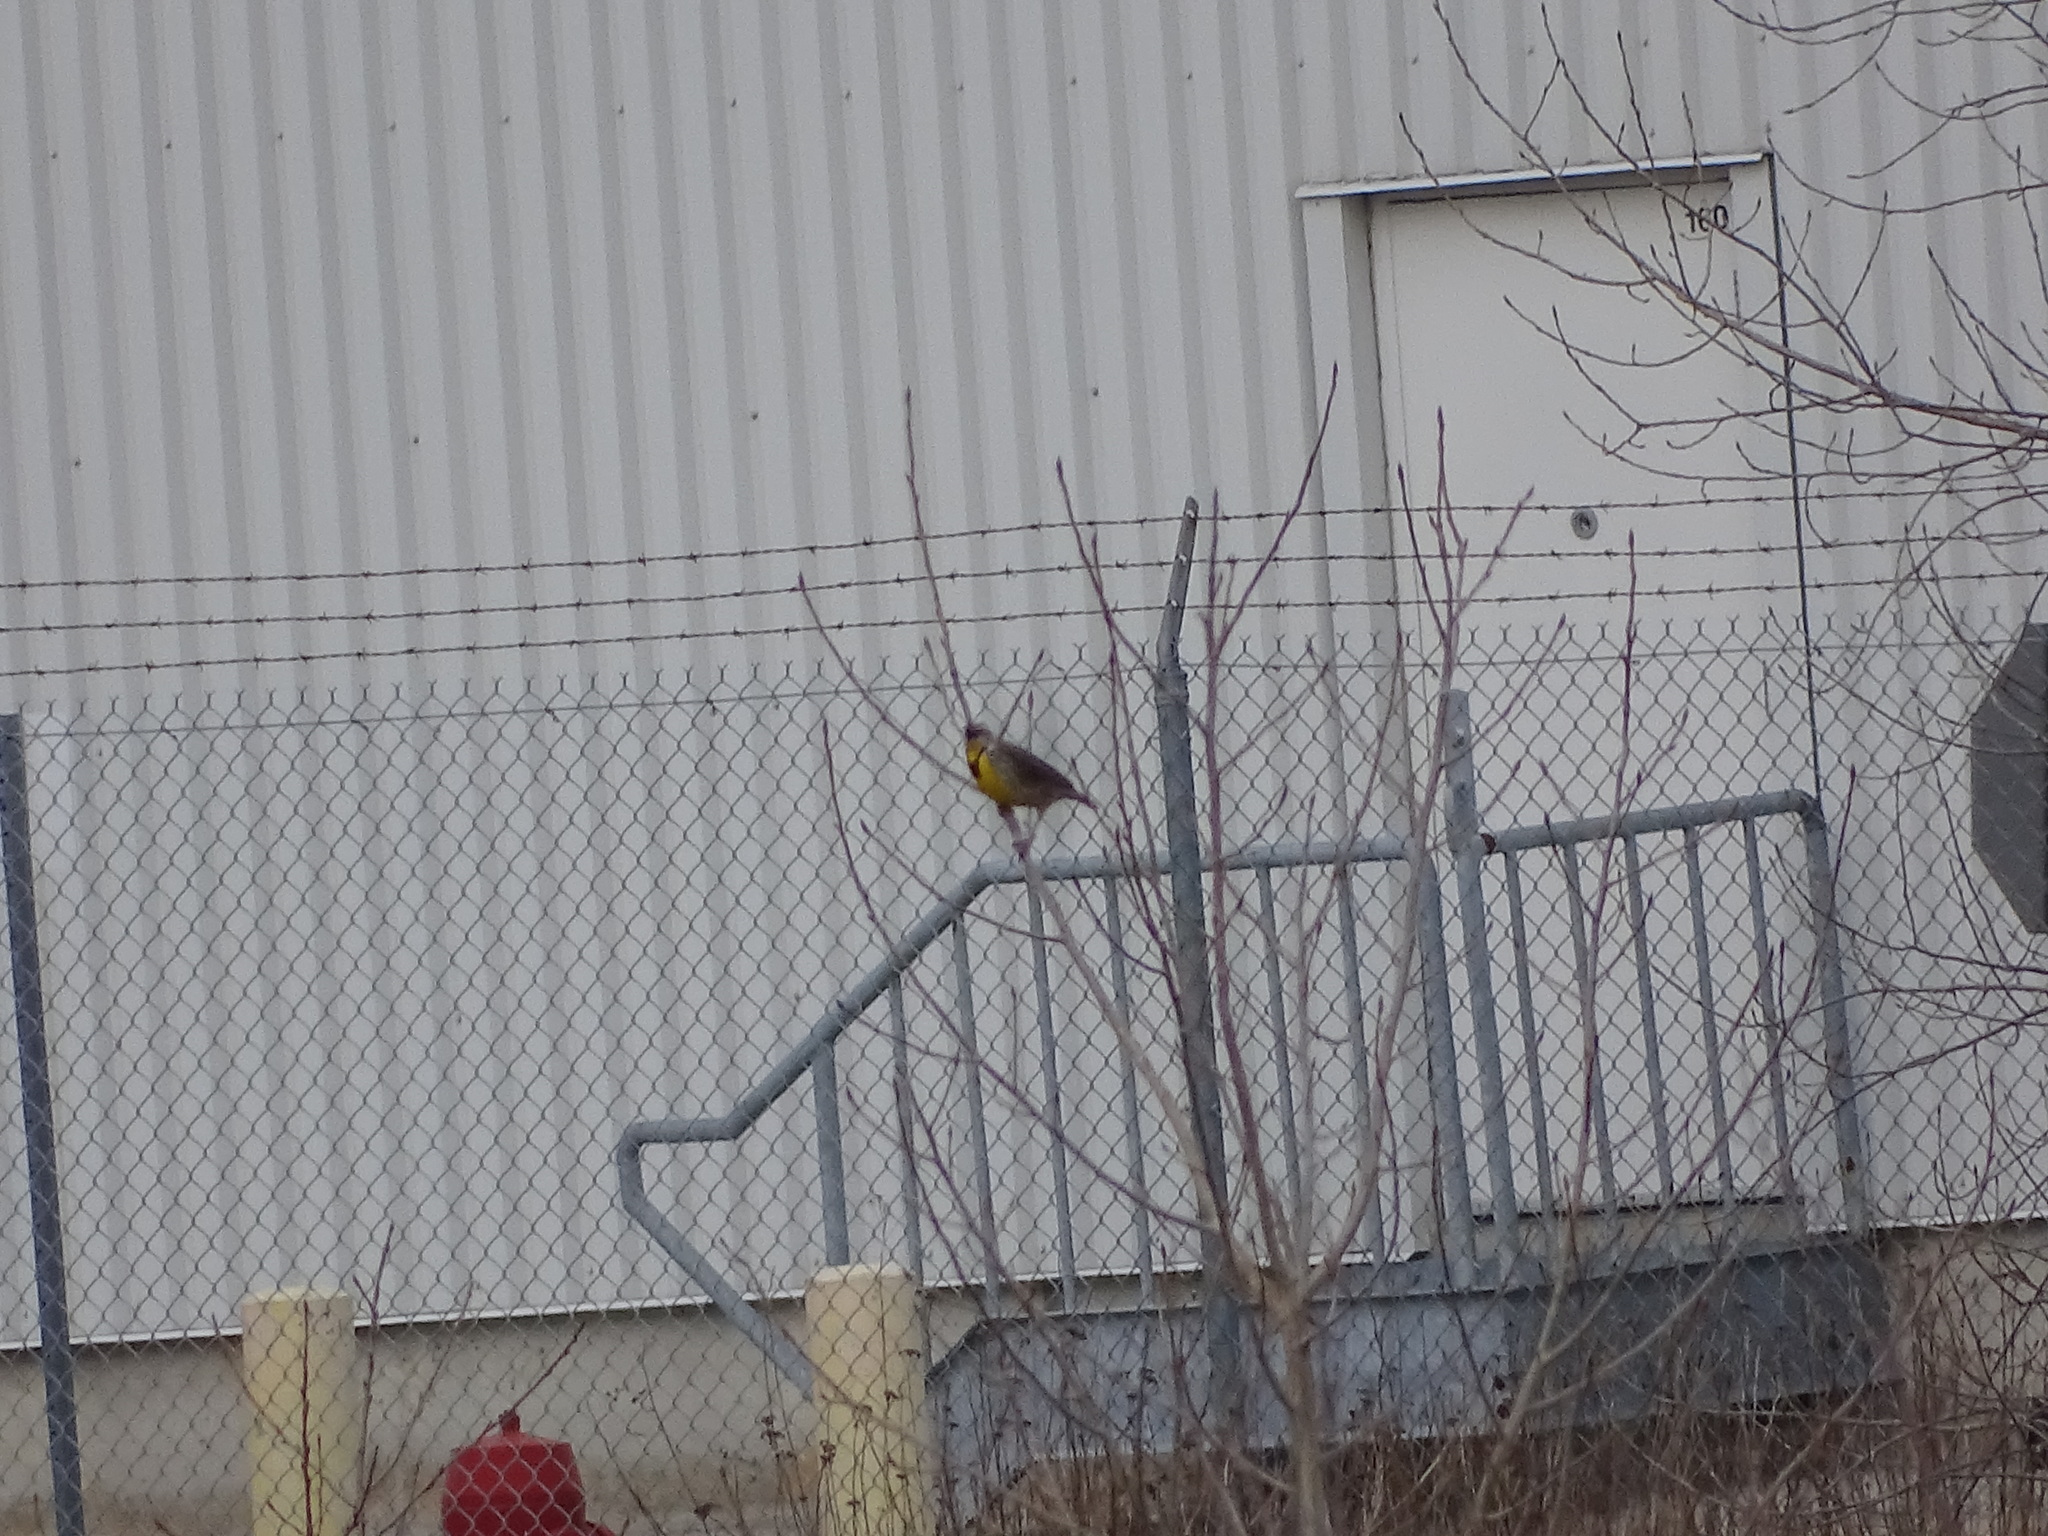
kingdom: Animalia
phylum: Chordata
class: Aves
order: Passeriformes
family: Icteridae
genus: Sturnella
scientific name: Sturnella magna
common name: Eastern meadowlark
